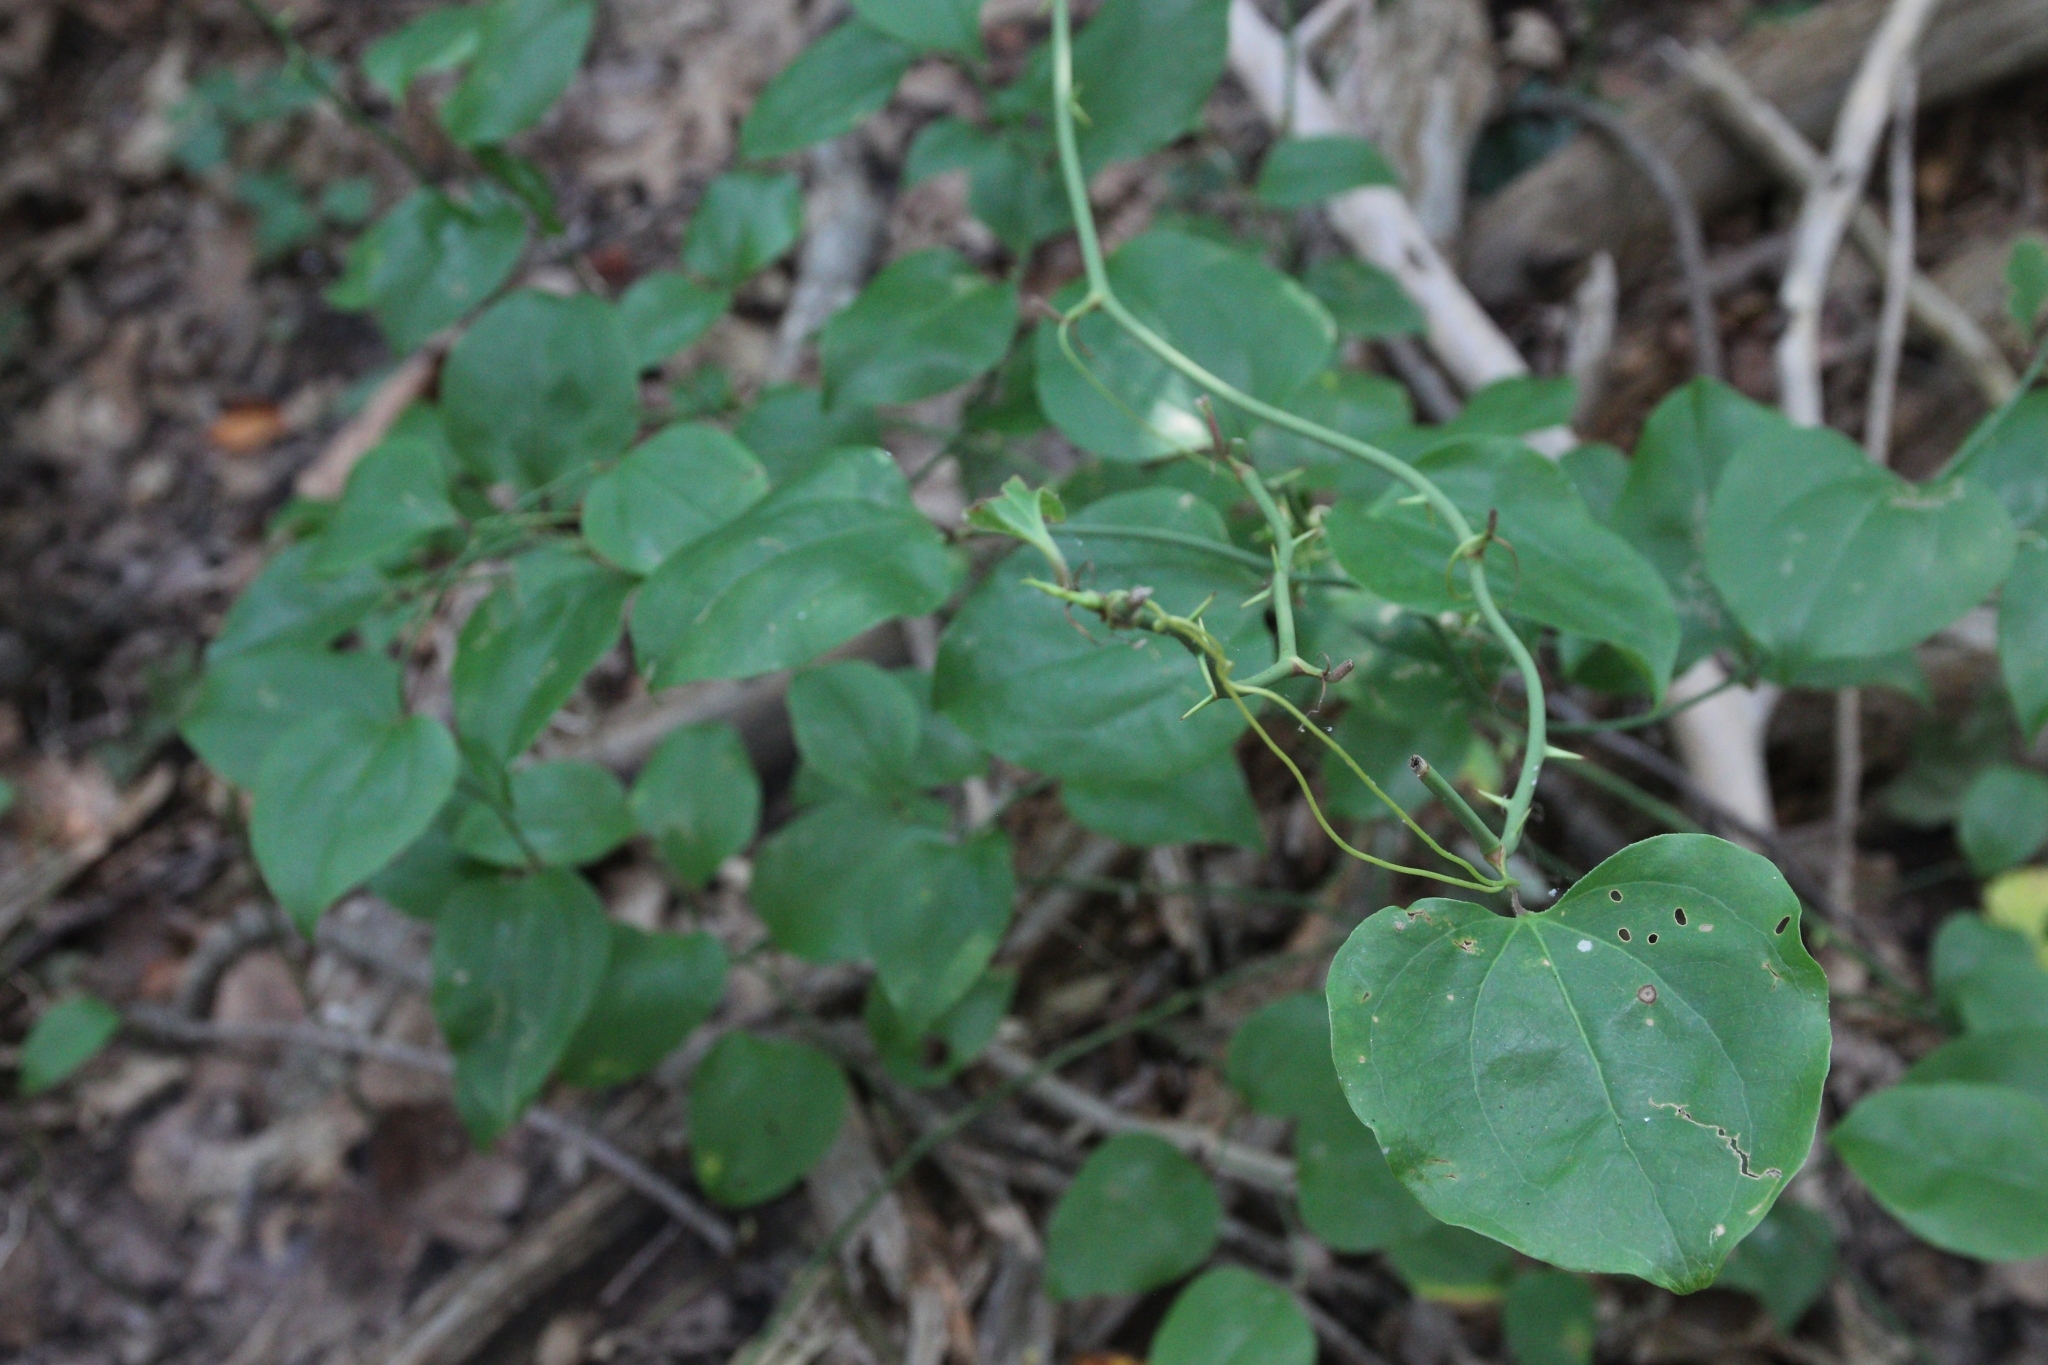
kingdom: Plantae
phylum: Tracheophyta
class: Liliopsida
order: Liliales
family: Smilacaceae
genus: Smilax
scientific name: Smilax rotundifolia
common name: Bullbriar
